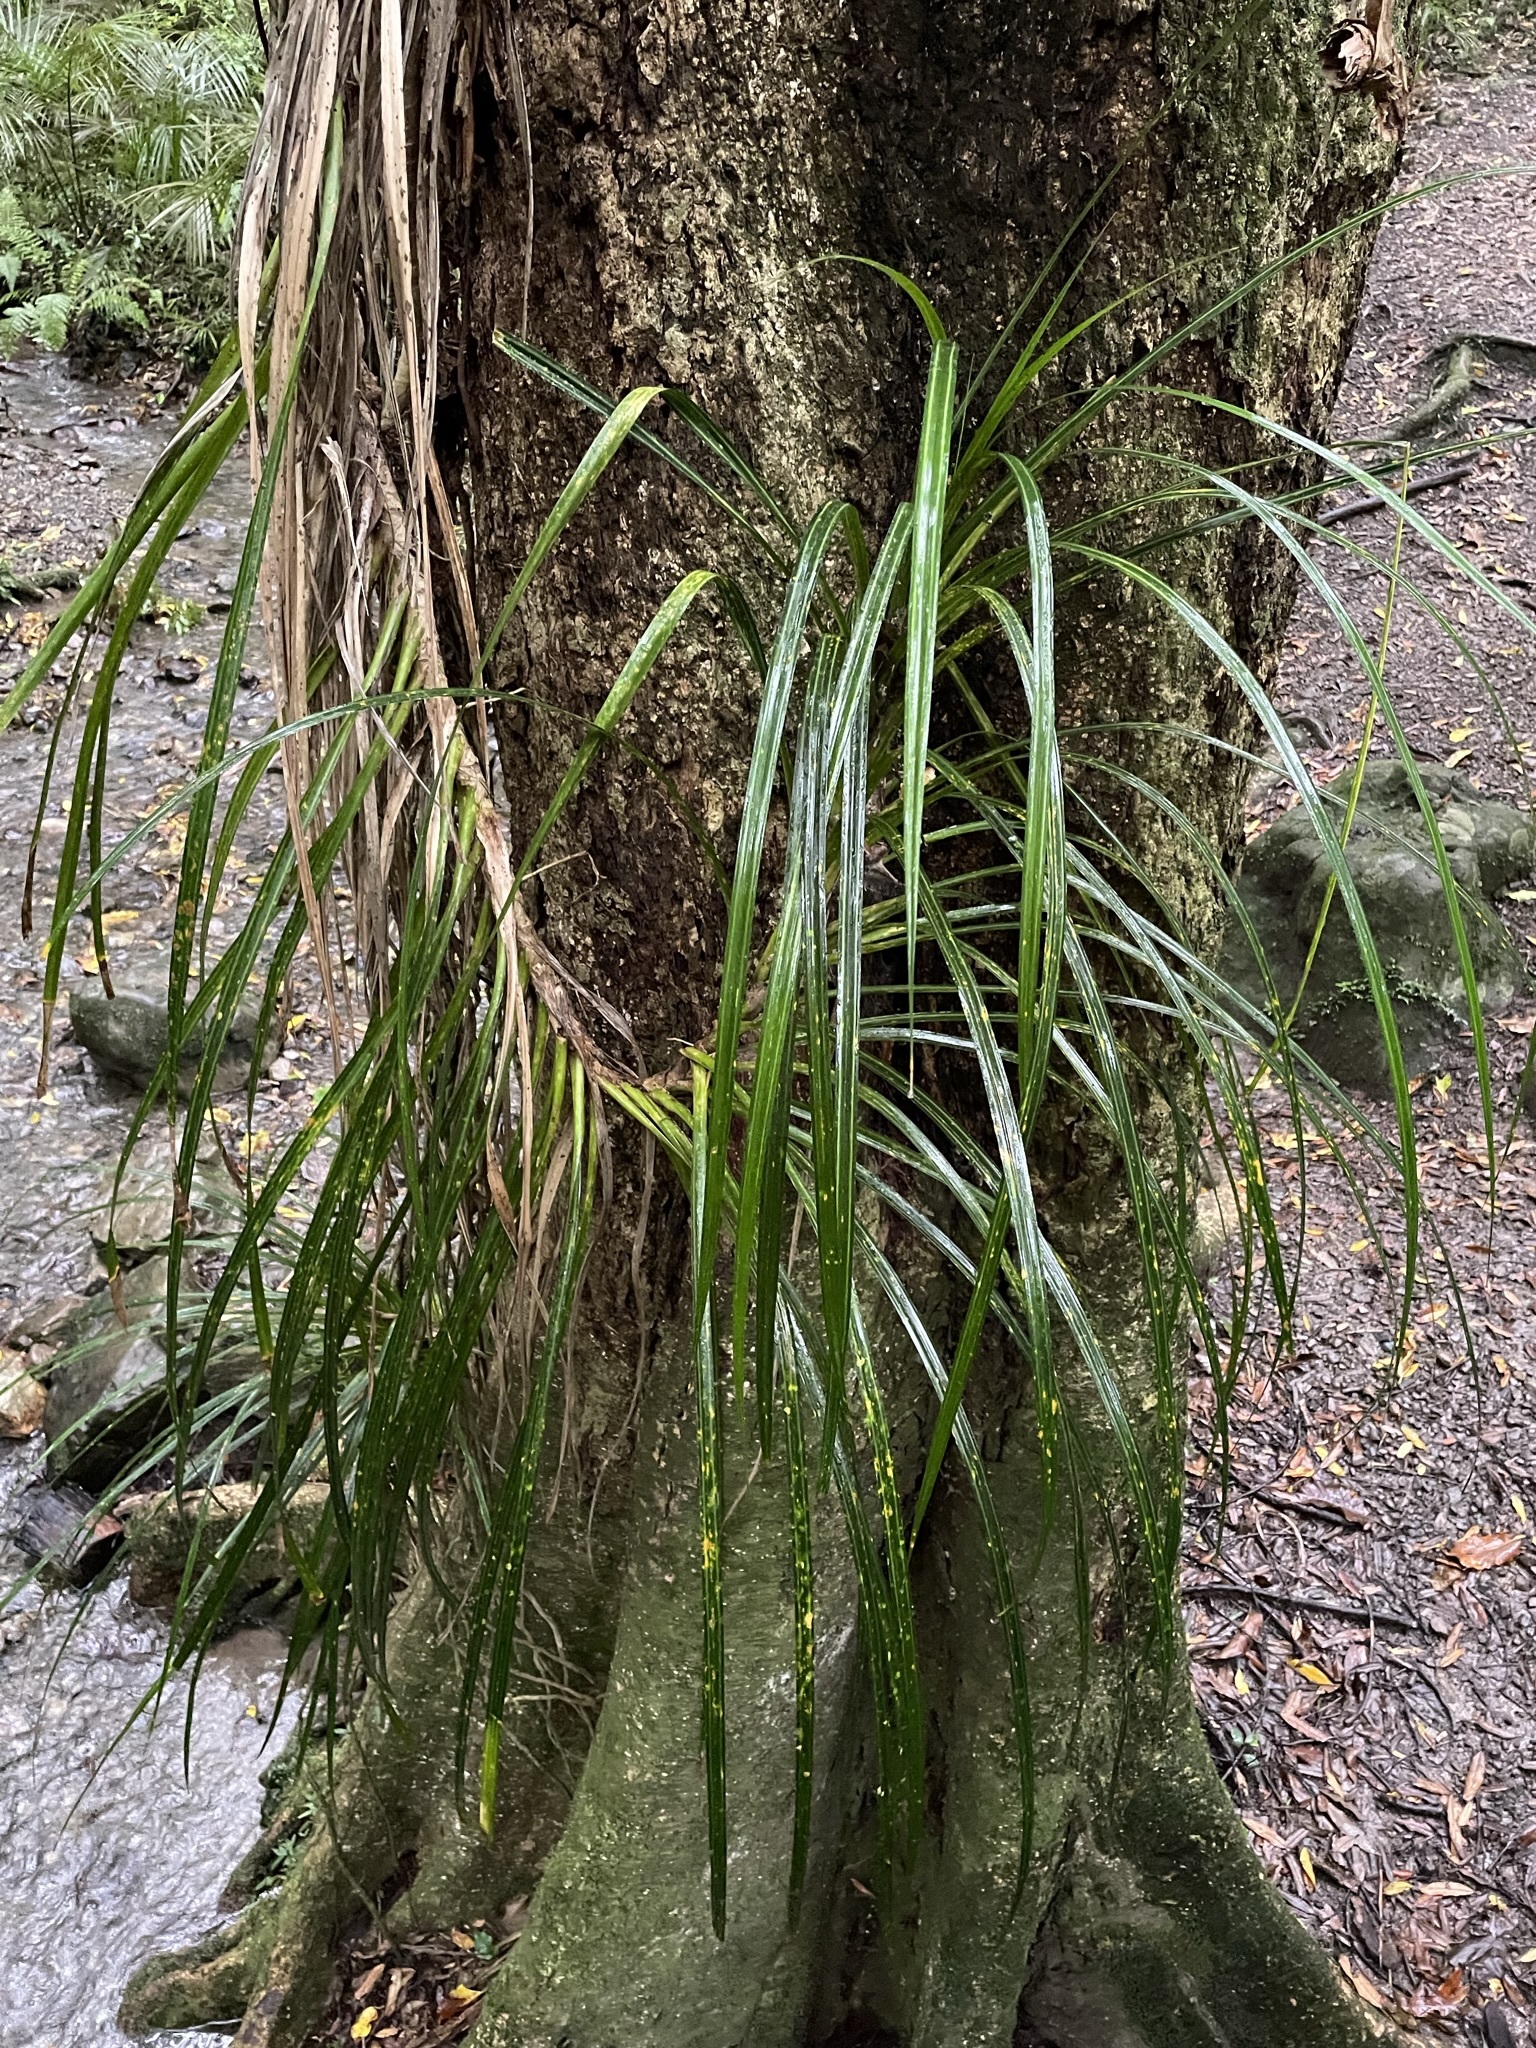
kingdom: Plantae
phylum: Tracheophyta
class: Liliopsida
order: Pandanales
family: Pandanaceae
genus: Freycinetia
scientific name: Freycinetia banksii
